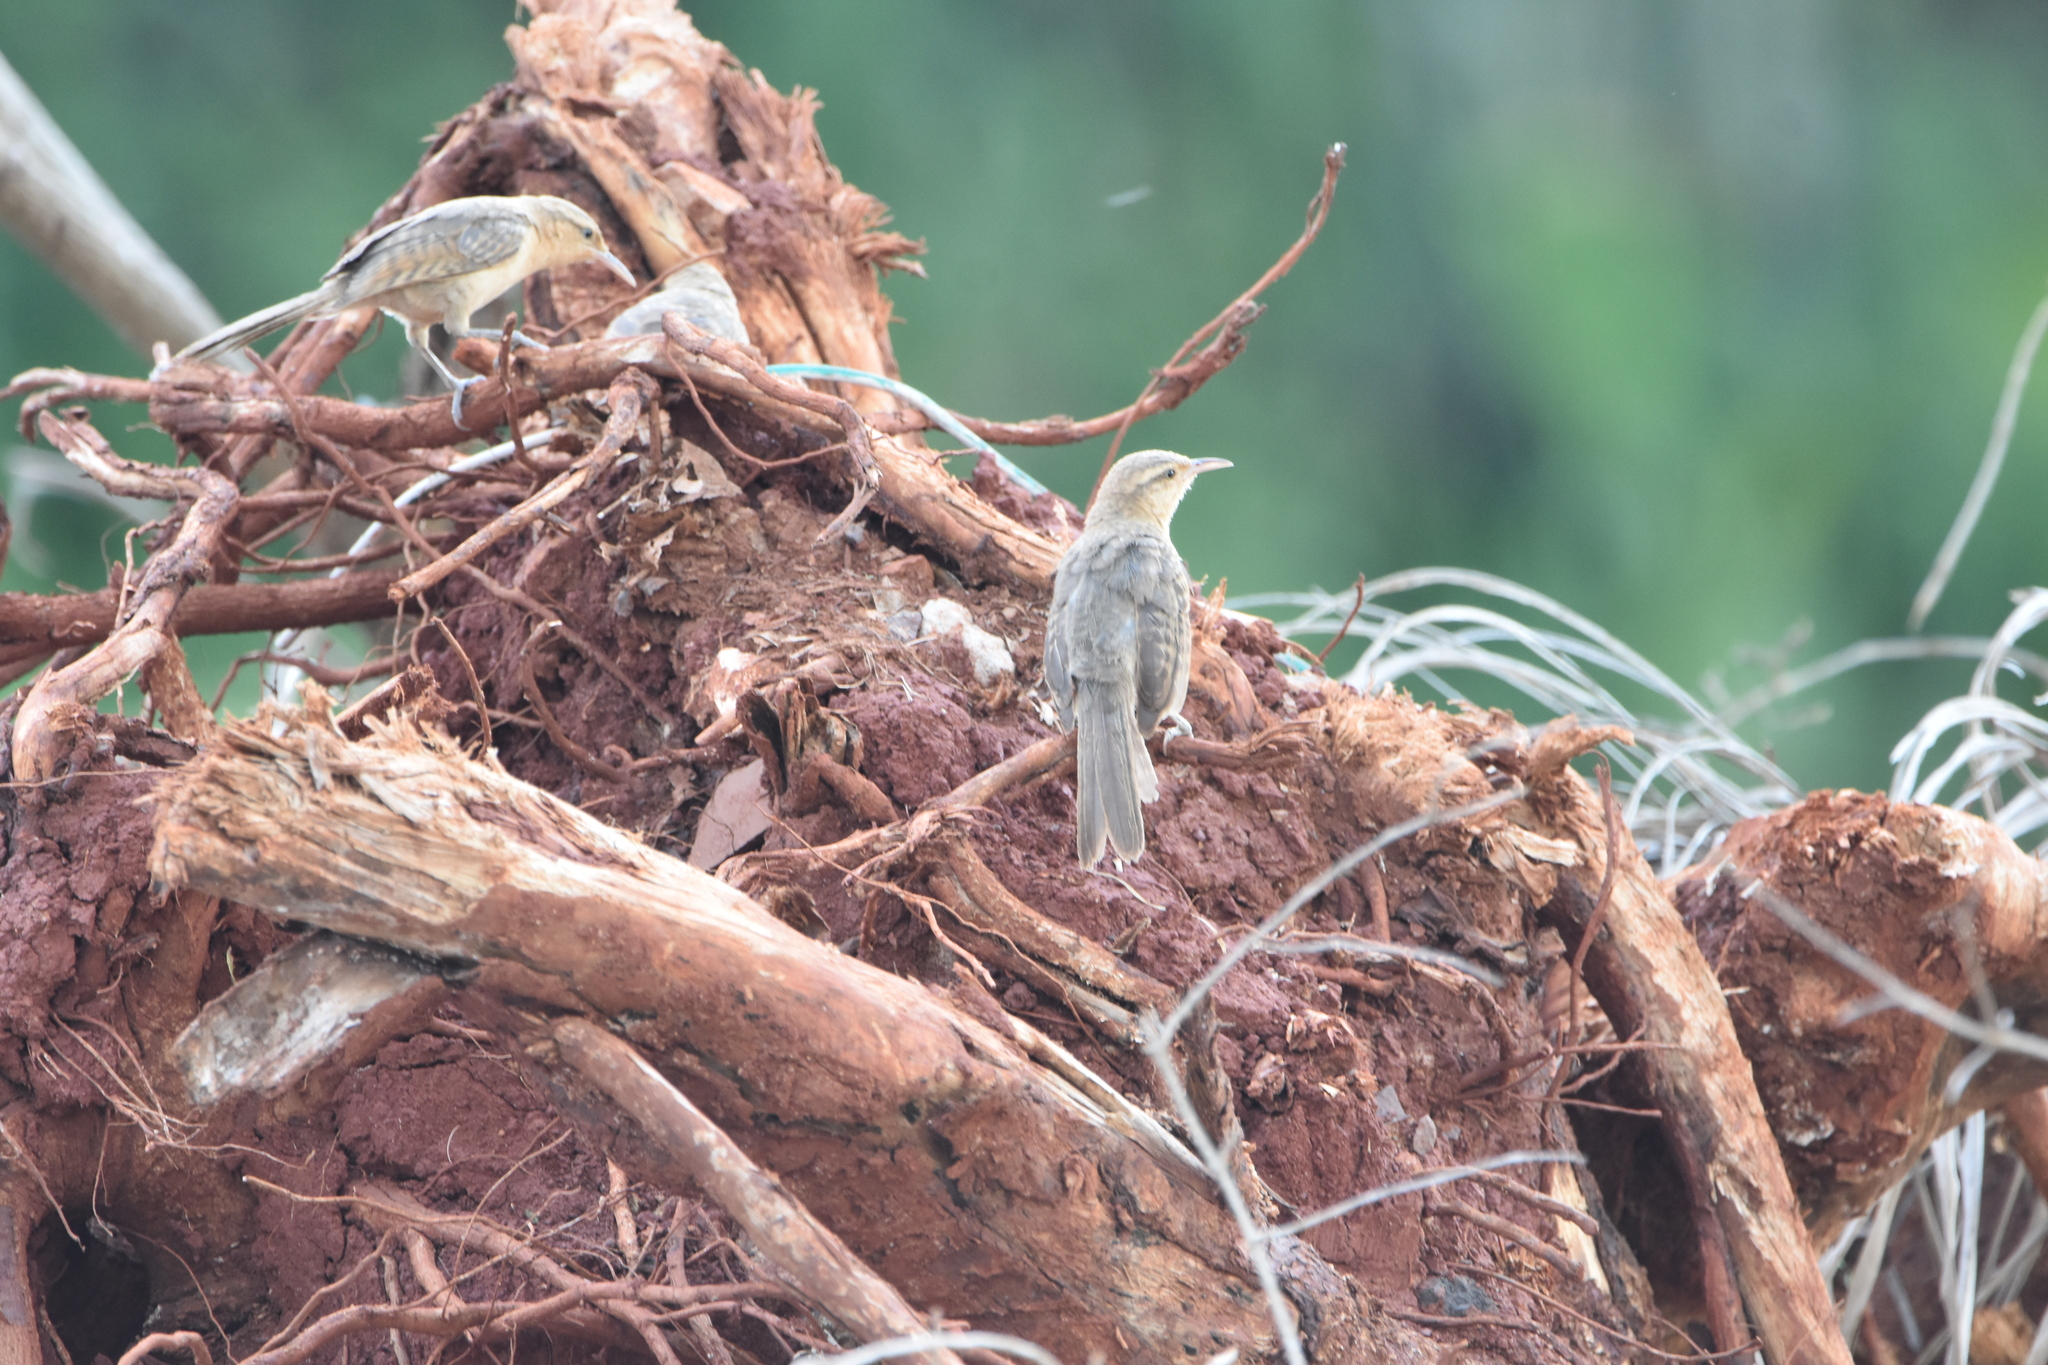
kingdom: Animalia
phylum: Chordata
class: Aves
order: Passeriformes
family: Troglodytidae
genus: Campylorhynchus
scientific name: Campylorhynchus turdinus
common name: Thrush-like wren
